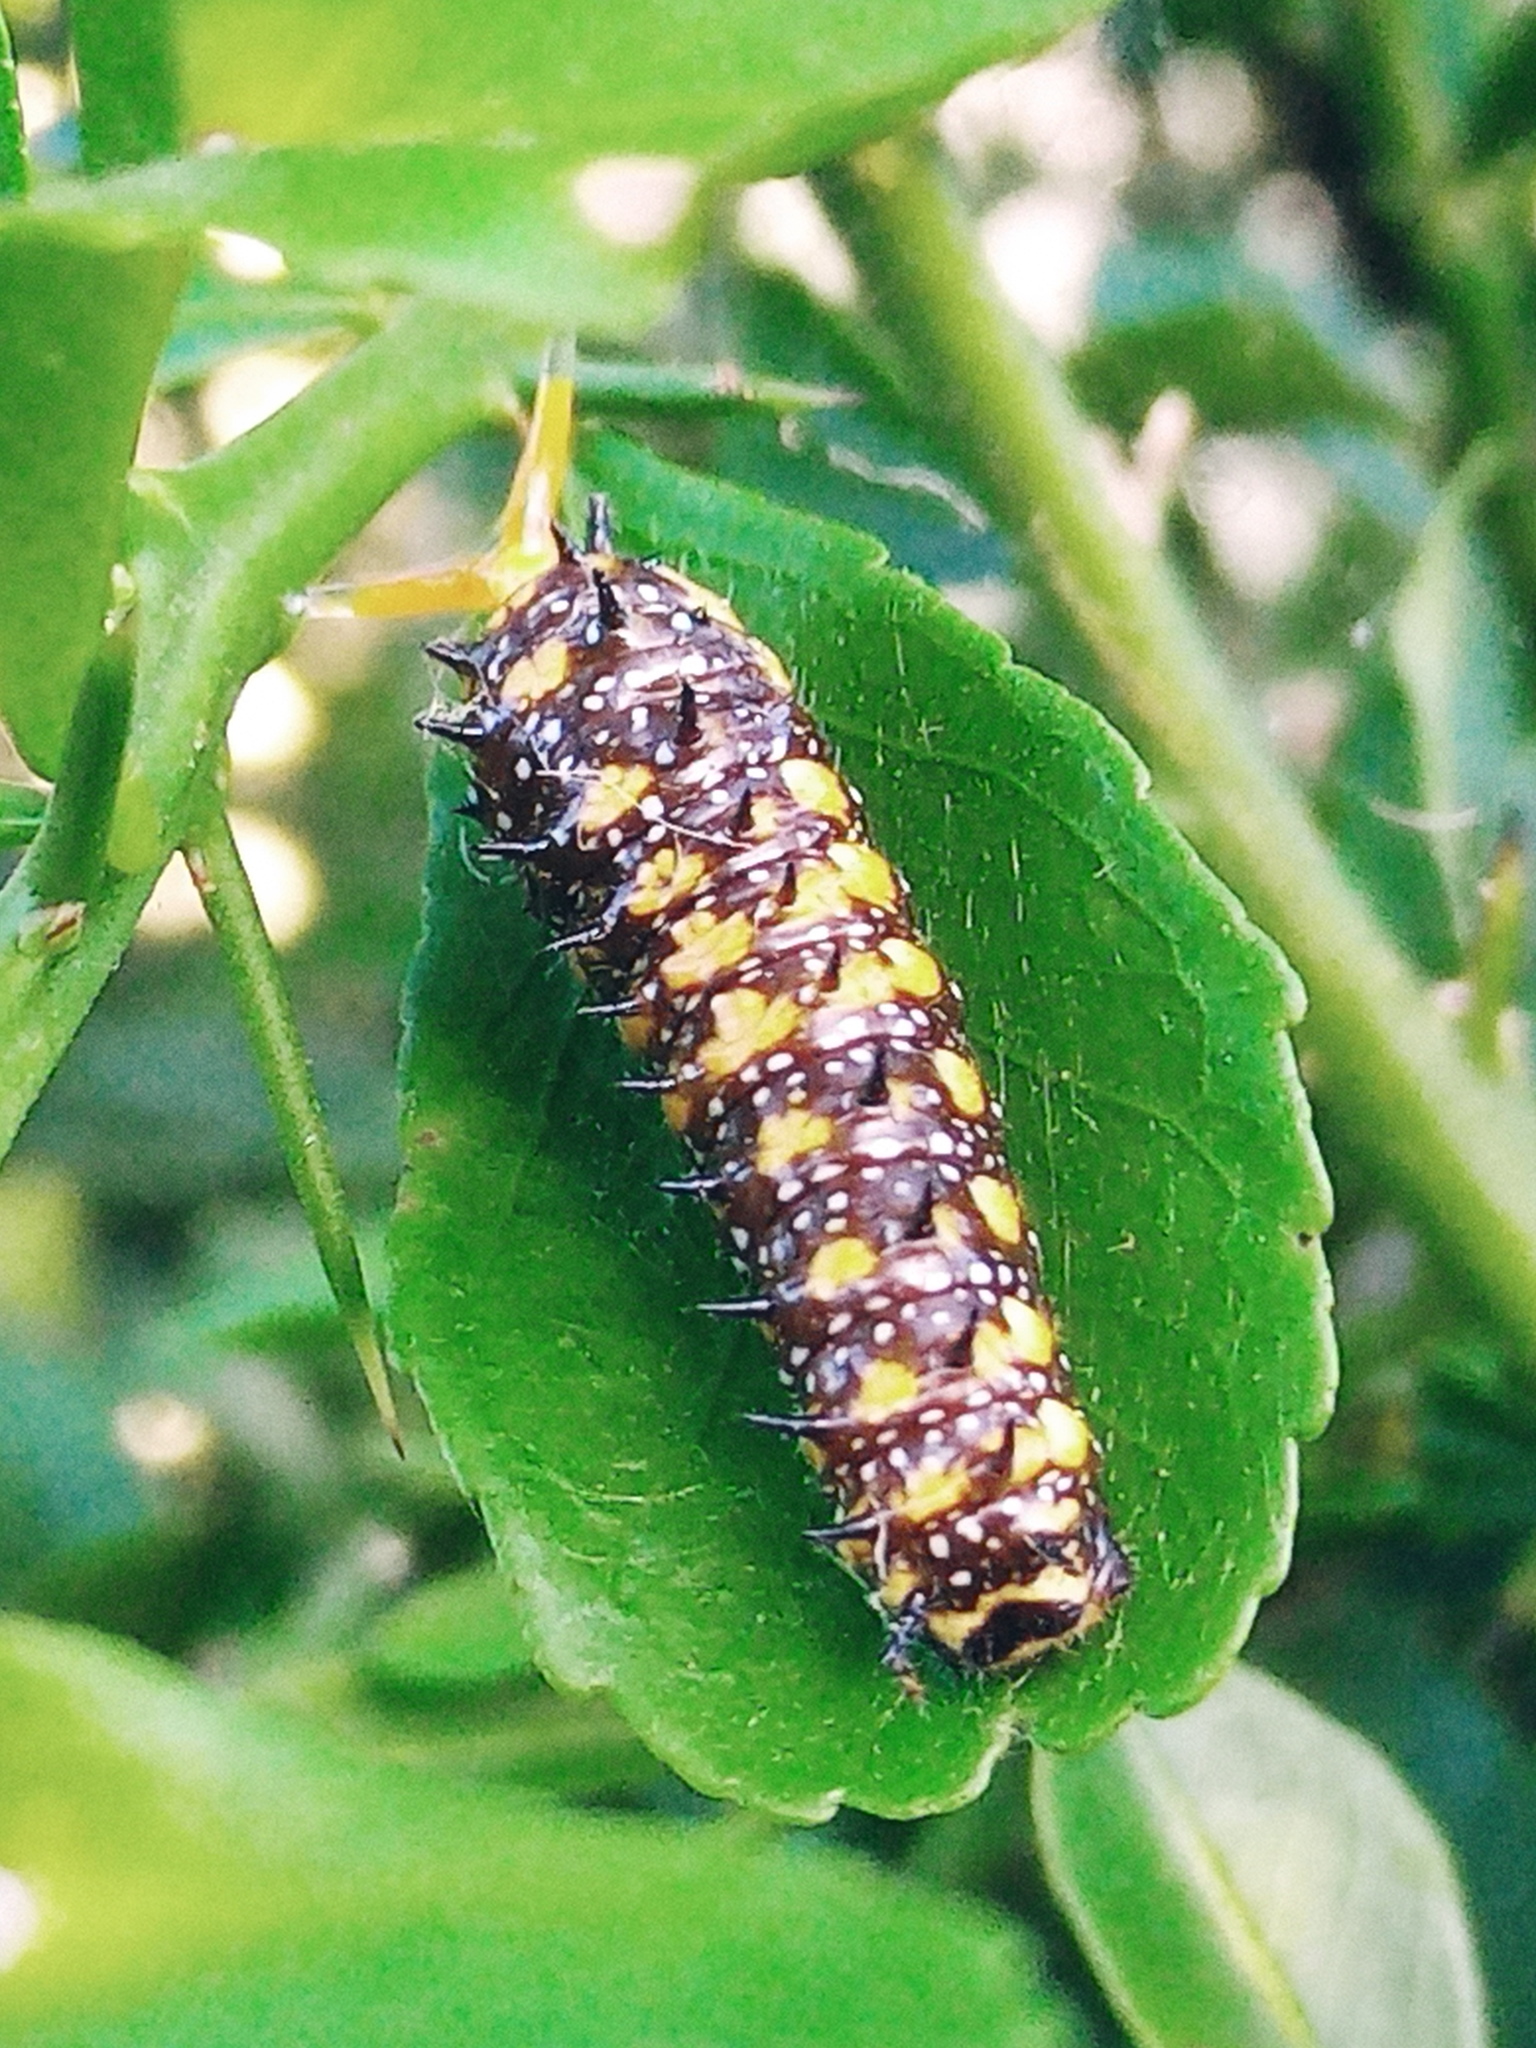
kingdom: Animalia
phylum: Arthropoda
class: Insecta
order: Lepidoptera
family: Papilionidae
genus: Papilio
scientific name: Papilio anactus
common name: Dingy swallowtail
